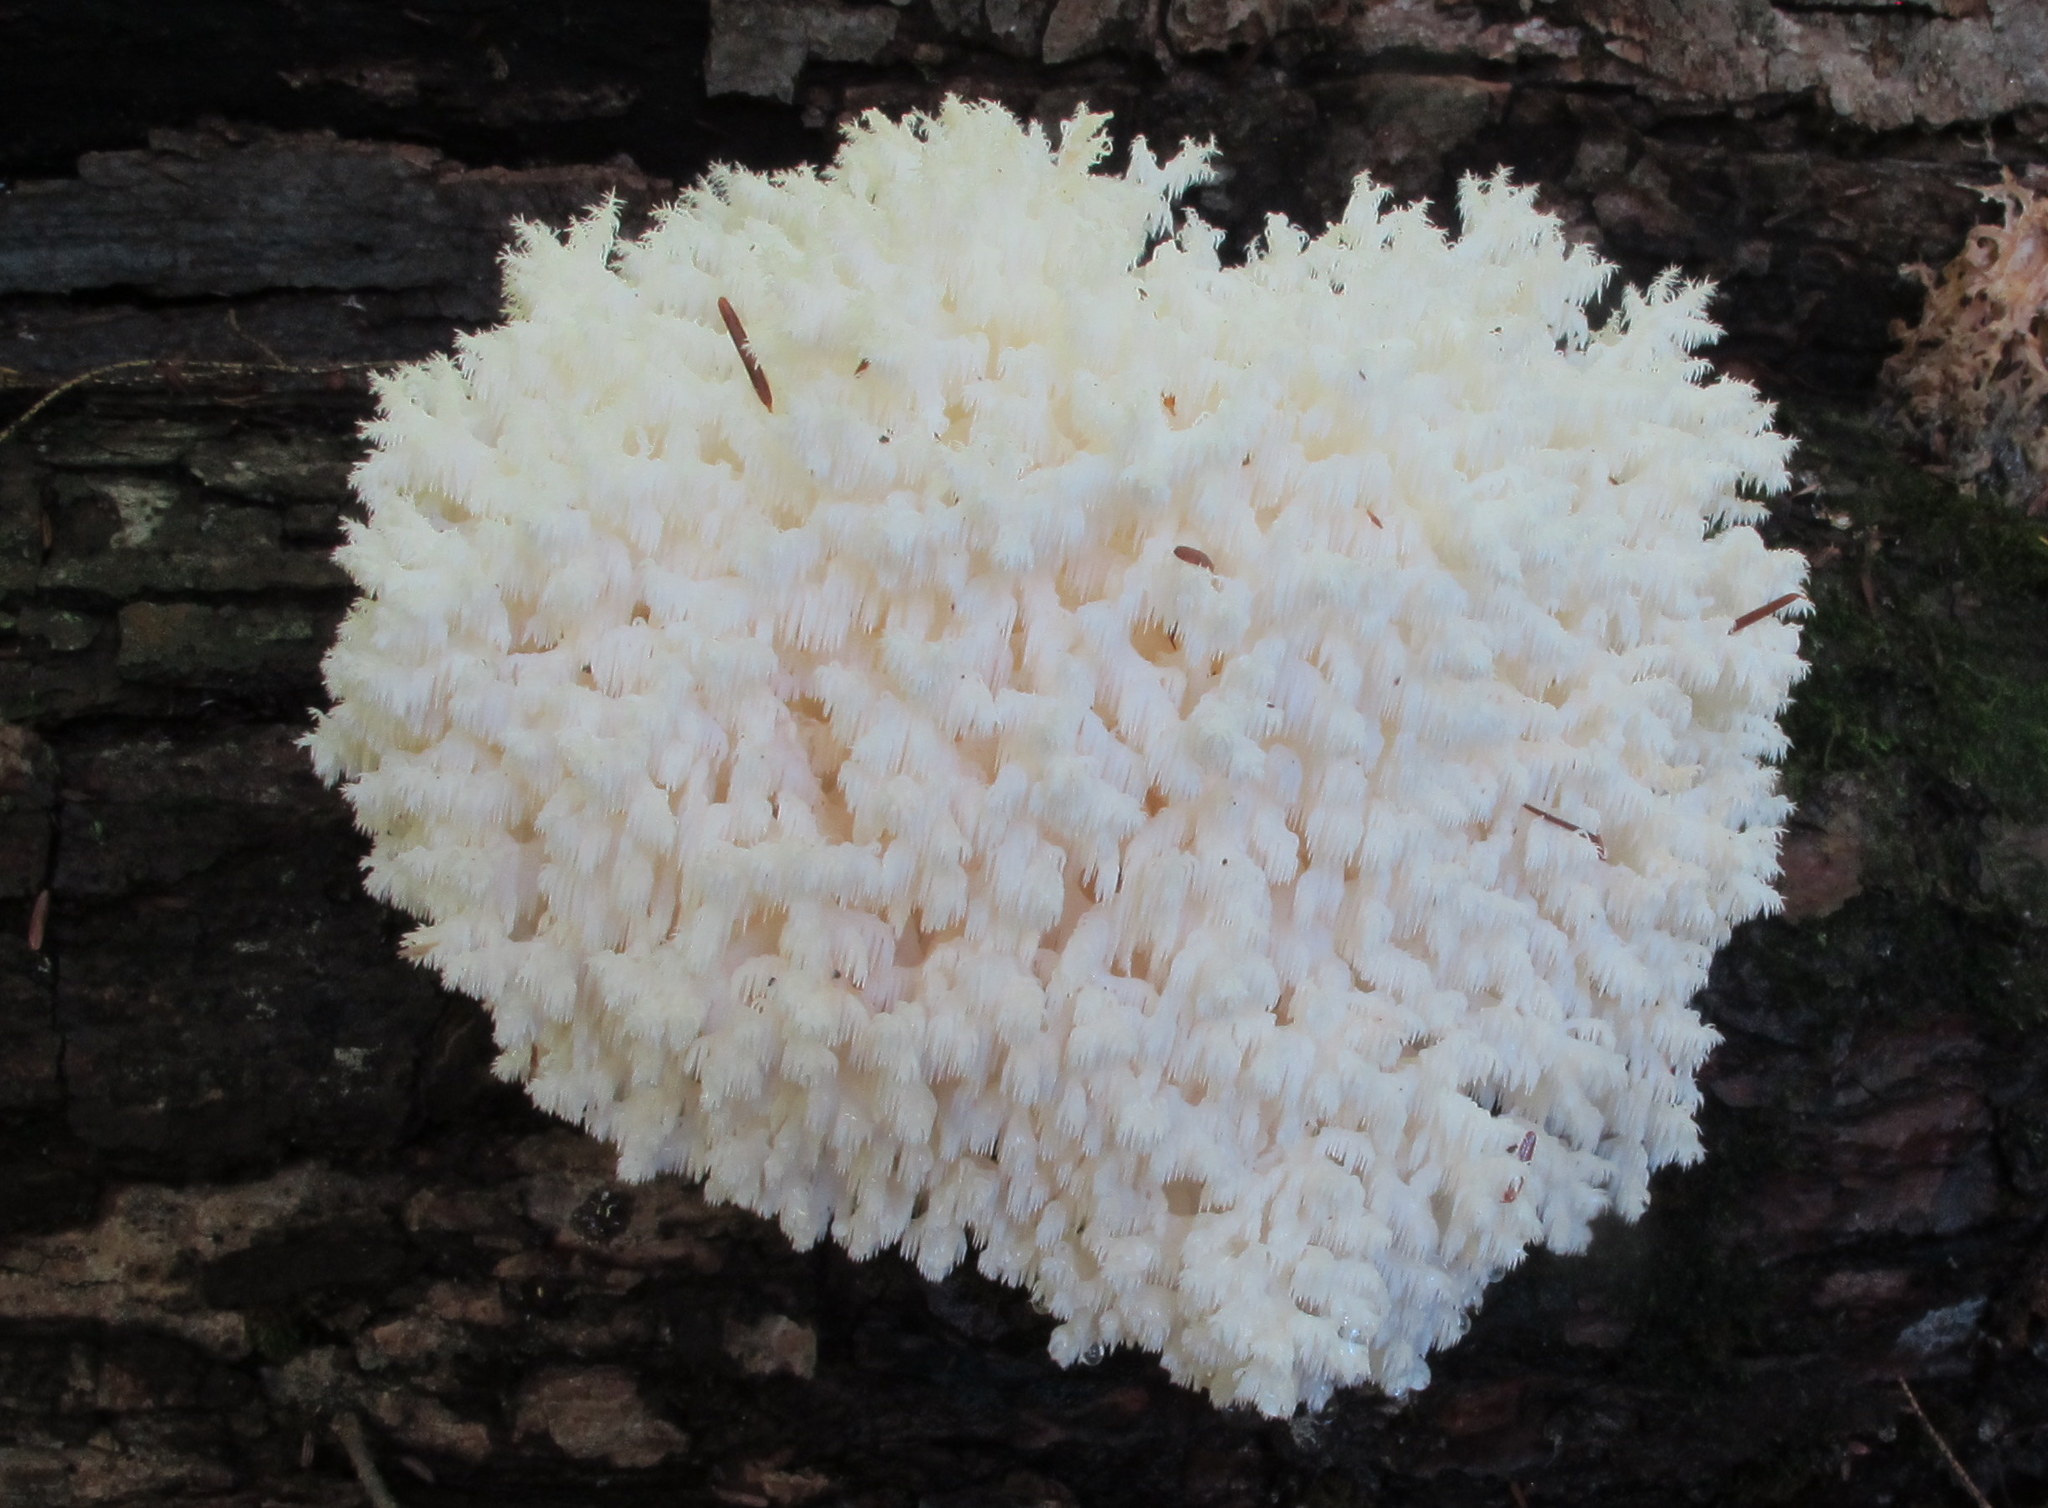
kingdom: Fungi
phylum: Basidiomycota
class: Agaricomycetes
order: Russulales
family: Hericiaceae
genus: Hericium
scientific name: Hericium coralloides
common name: Coral tooth
